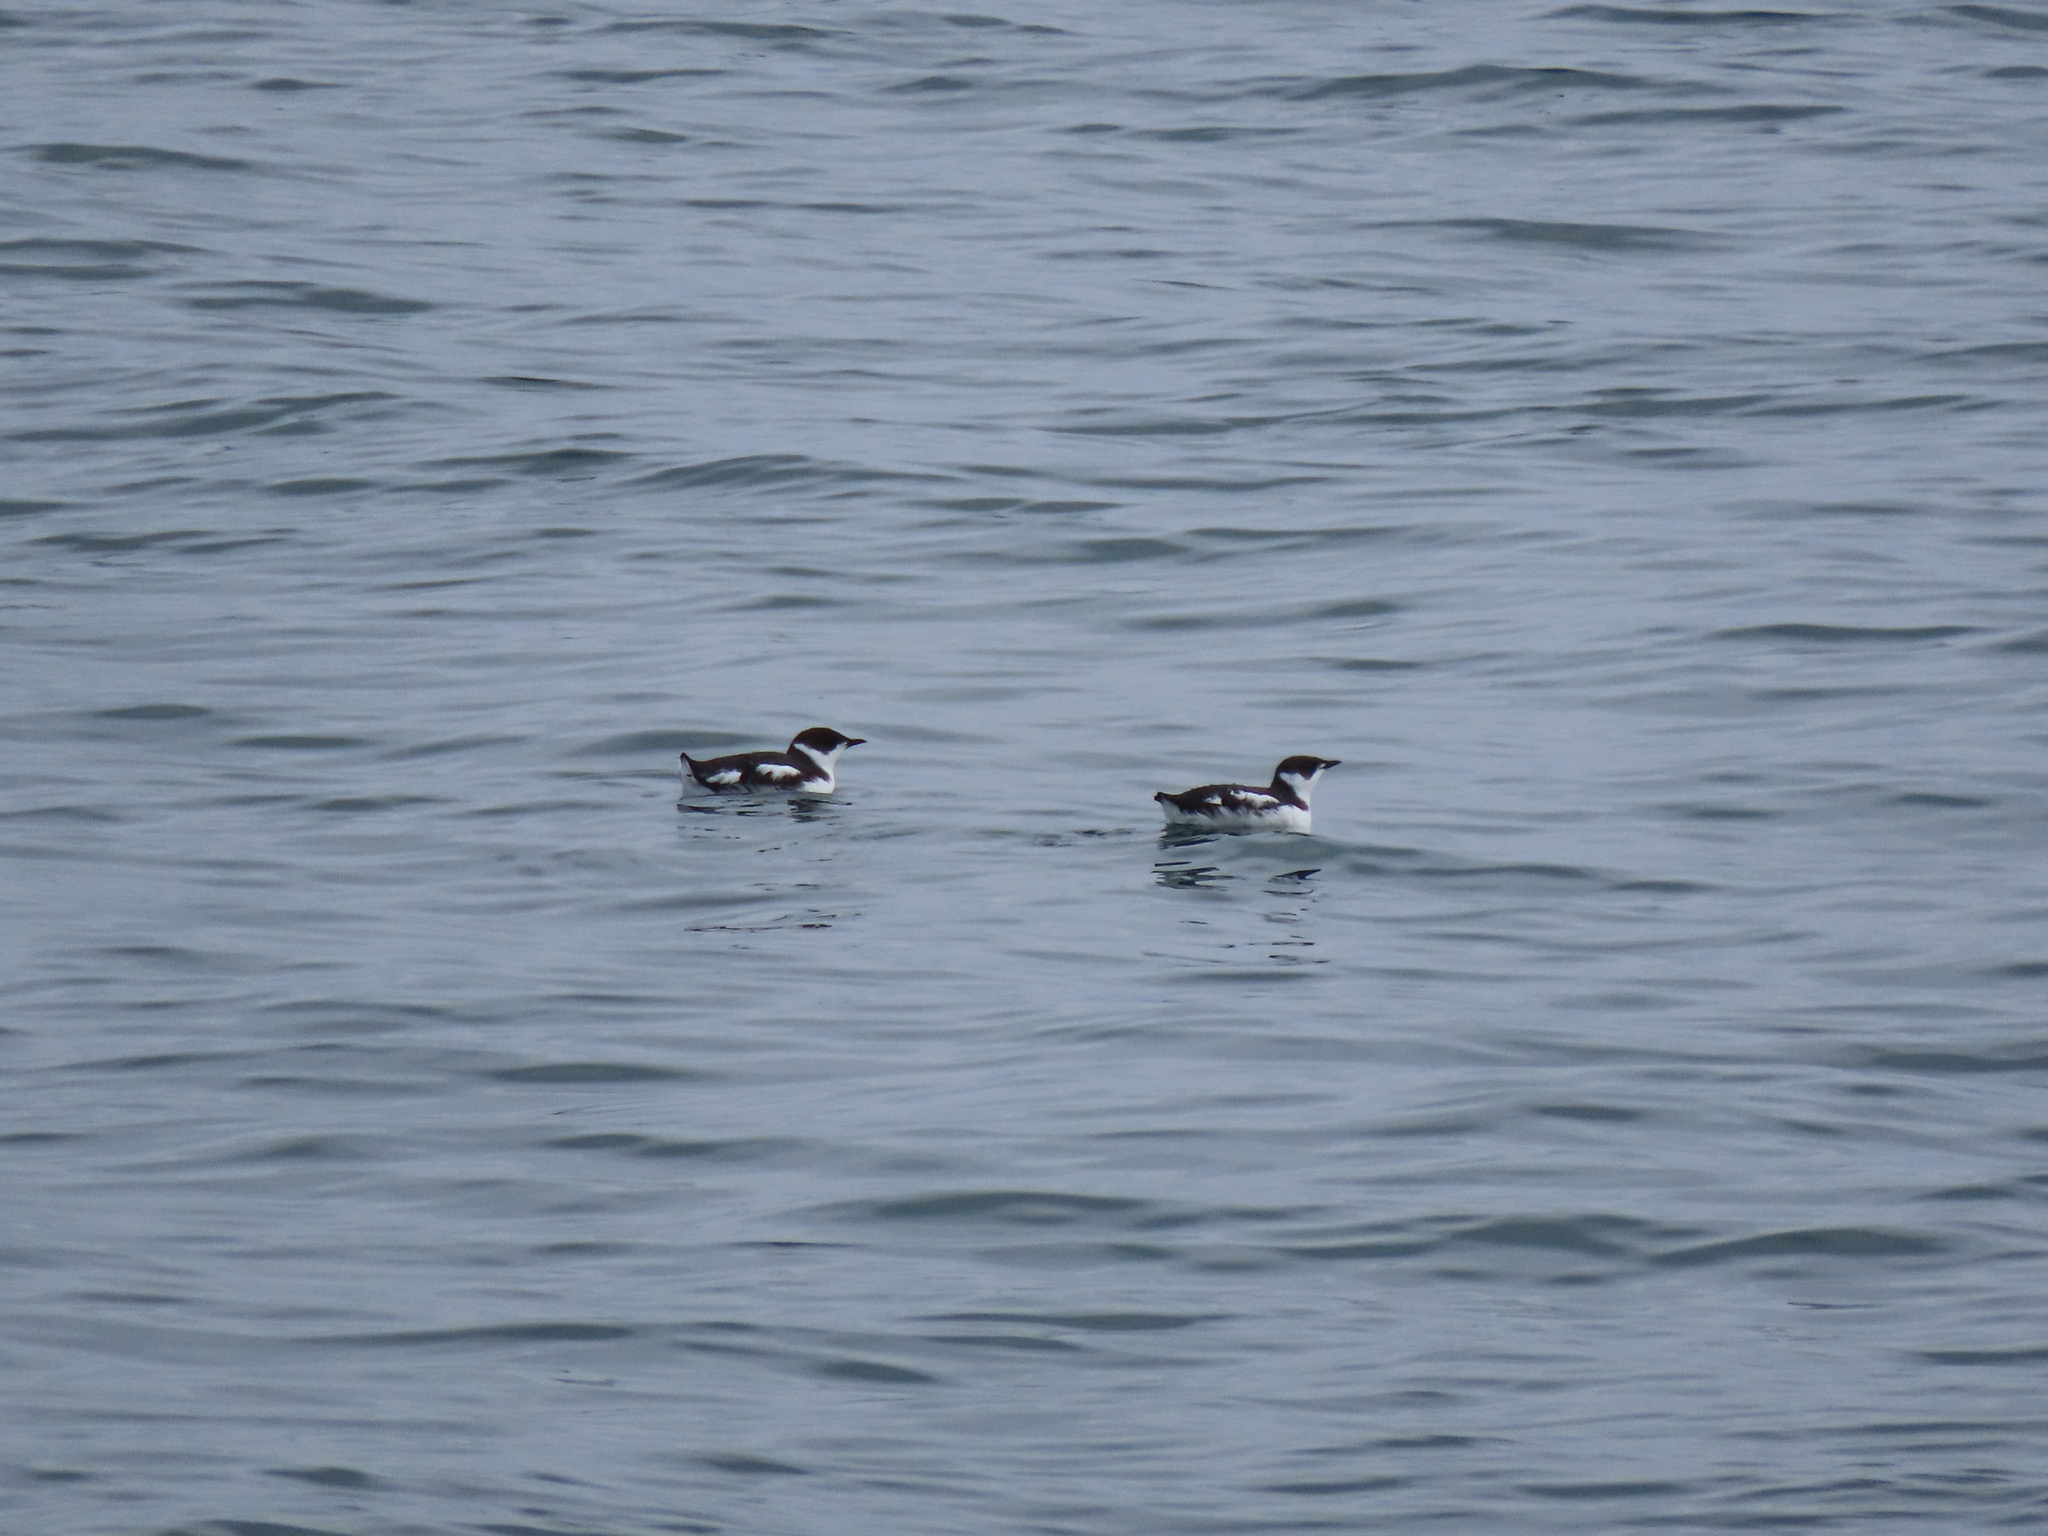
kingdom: Animalia
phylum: Chordata
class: Aves
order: Charadriiformes
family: Alcidae
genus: Brachyramphus
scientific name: Brachyramphus marmoratus
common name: Marbled murrelet
